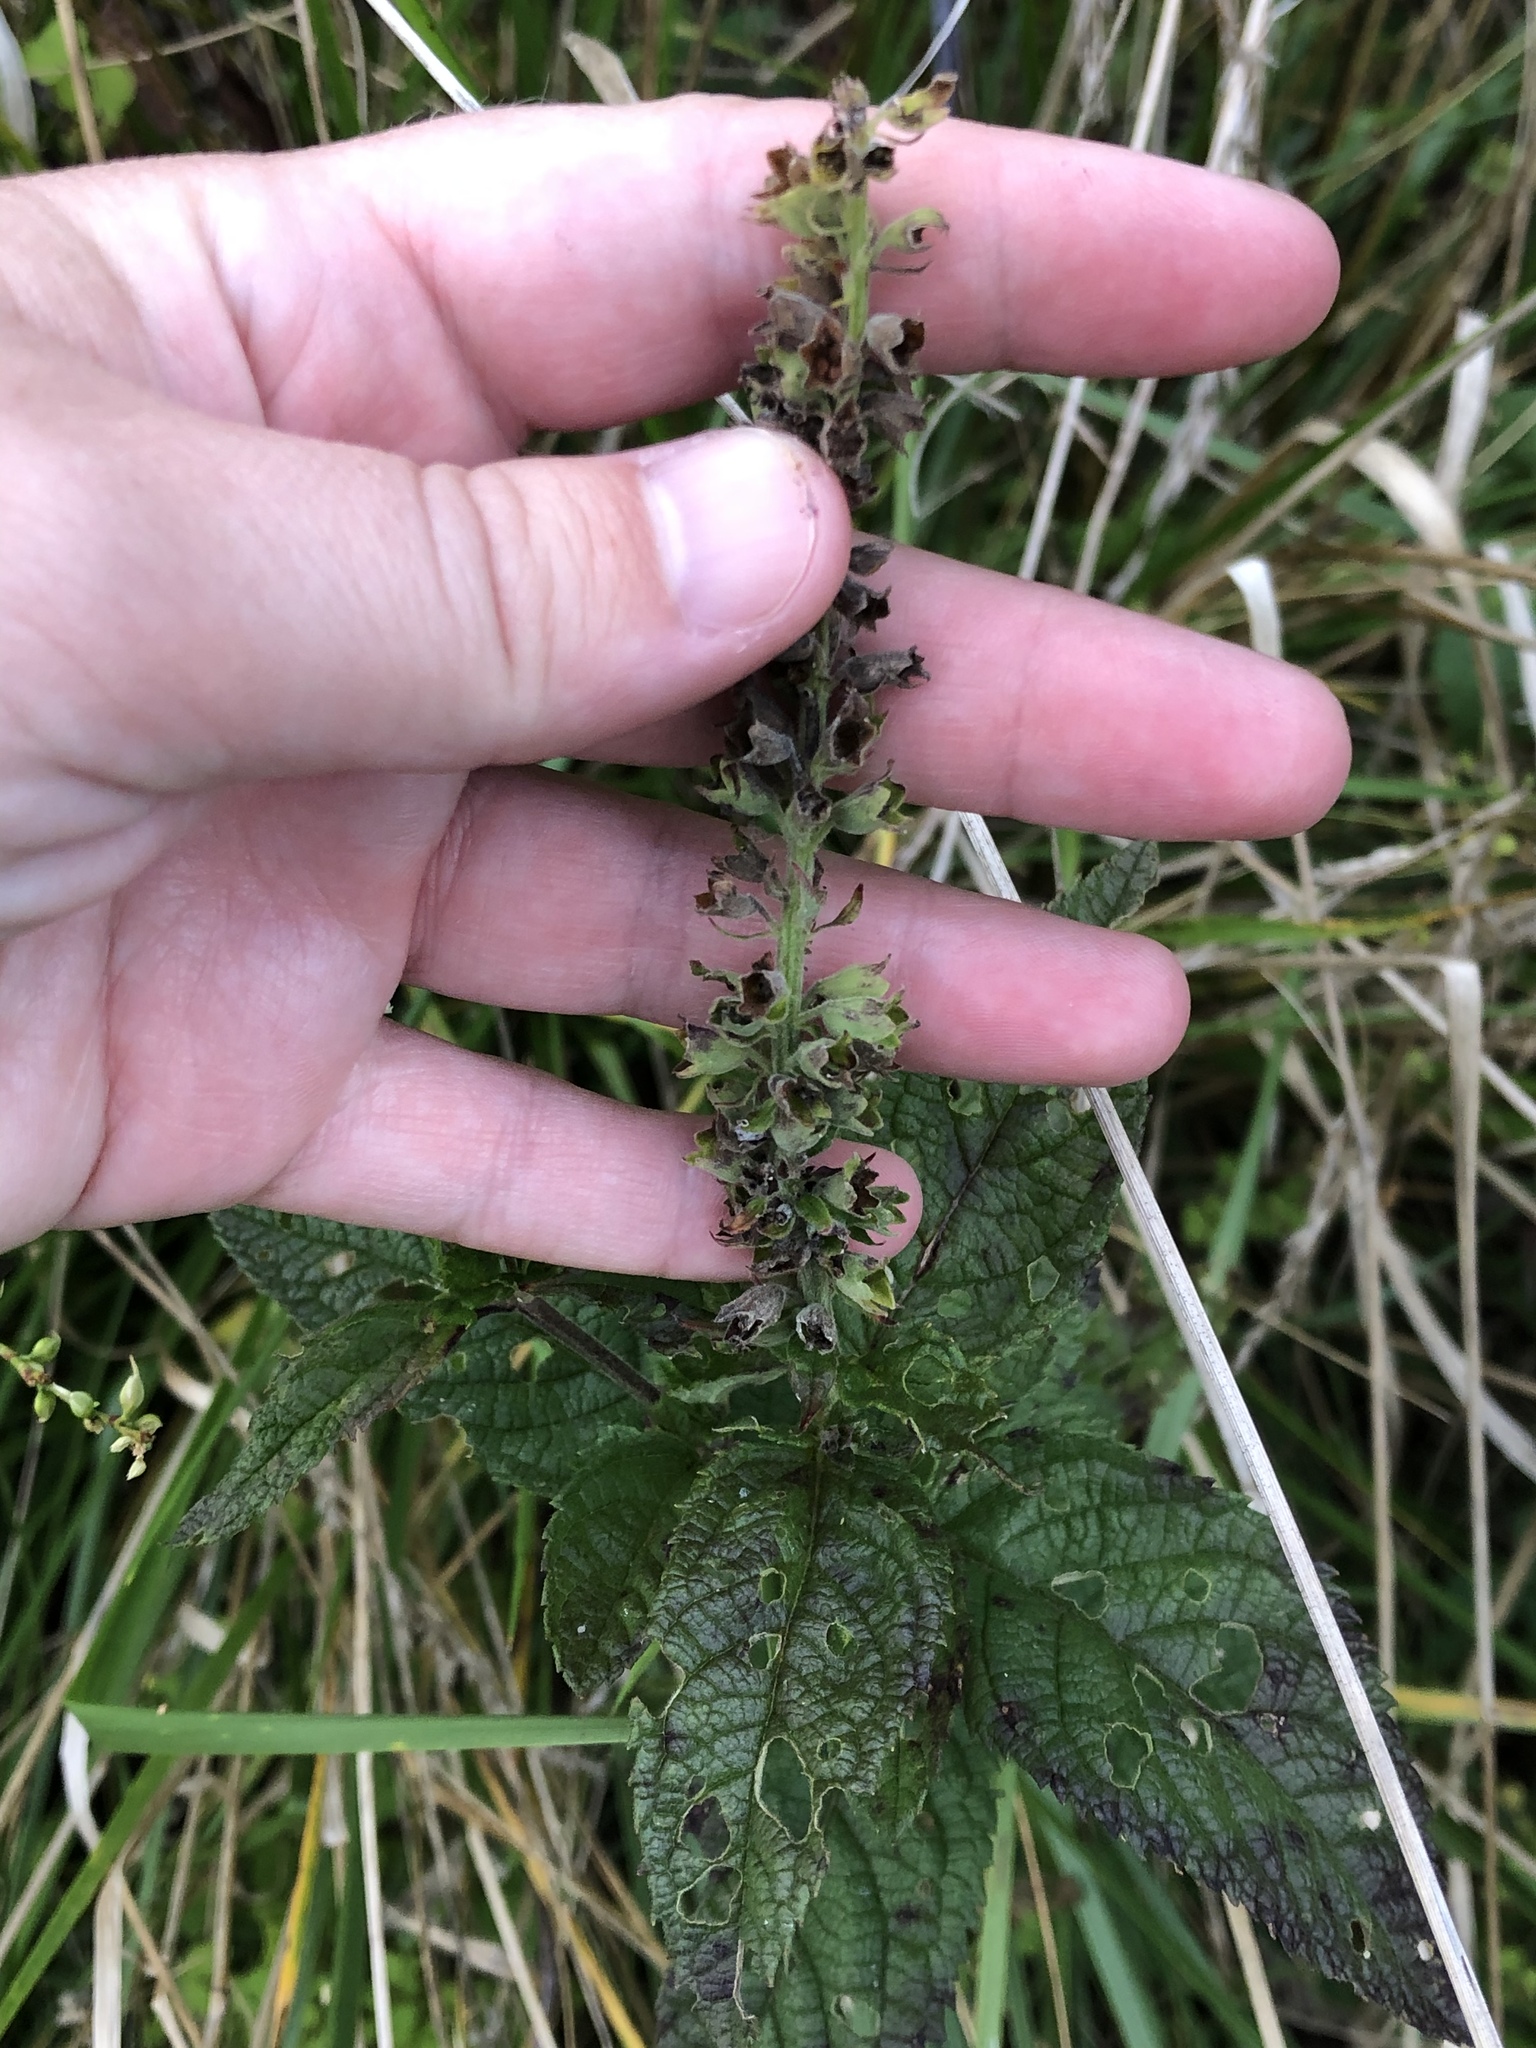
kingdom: Plantae
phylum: Tracheophyta
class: Magnoliopsida
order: Lamiales
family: Lamiaceae
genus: Teucrium
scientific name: Teucrium canadense
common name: American germander
